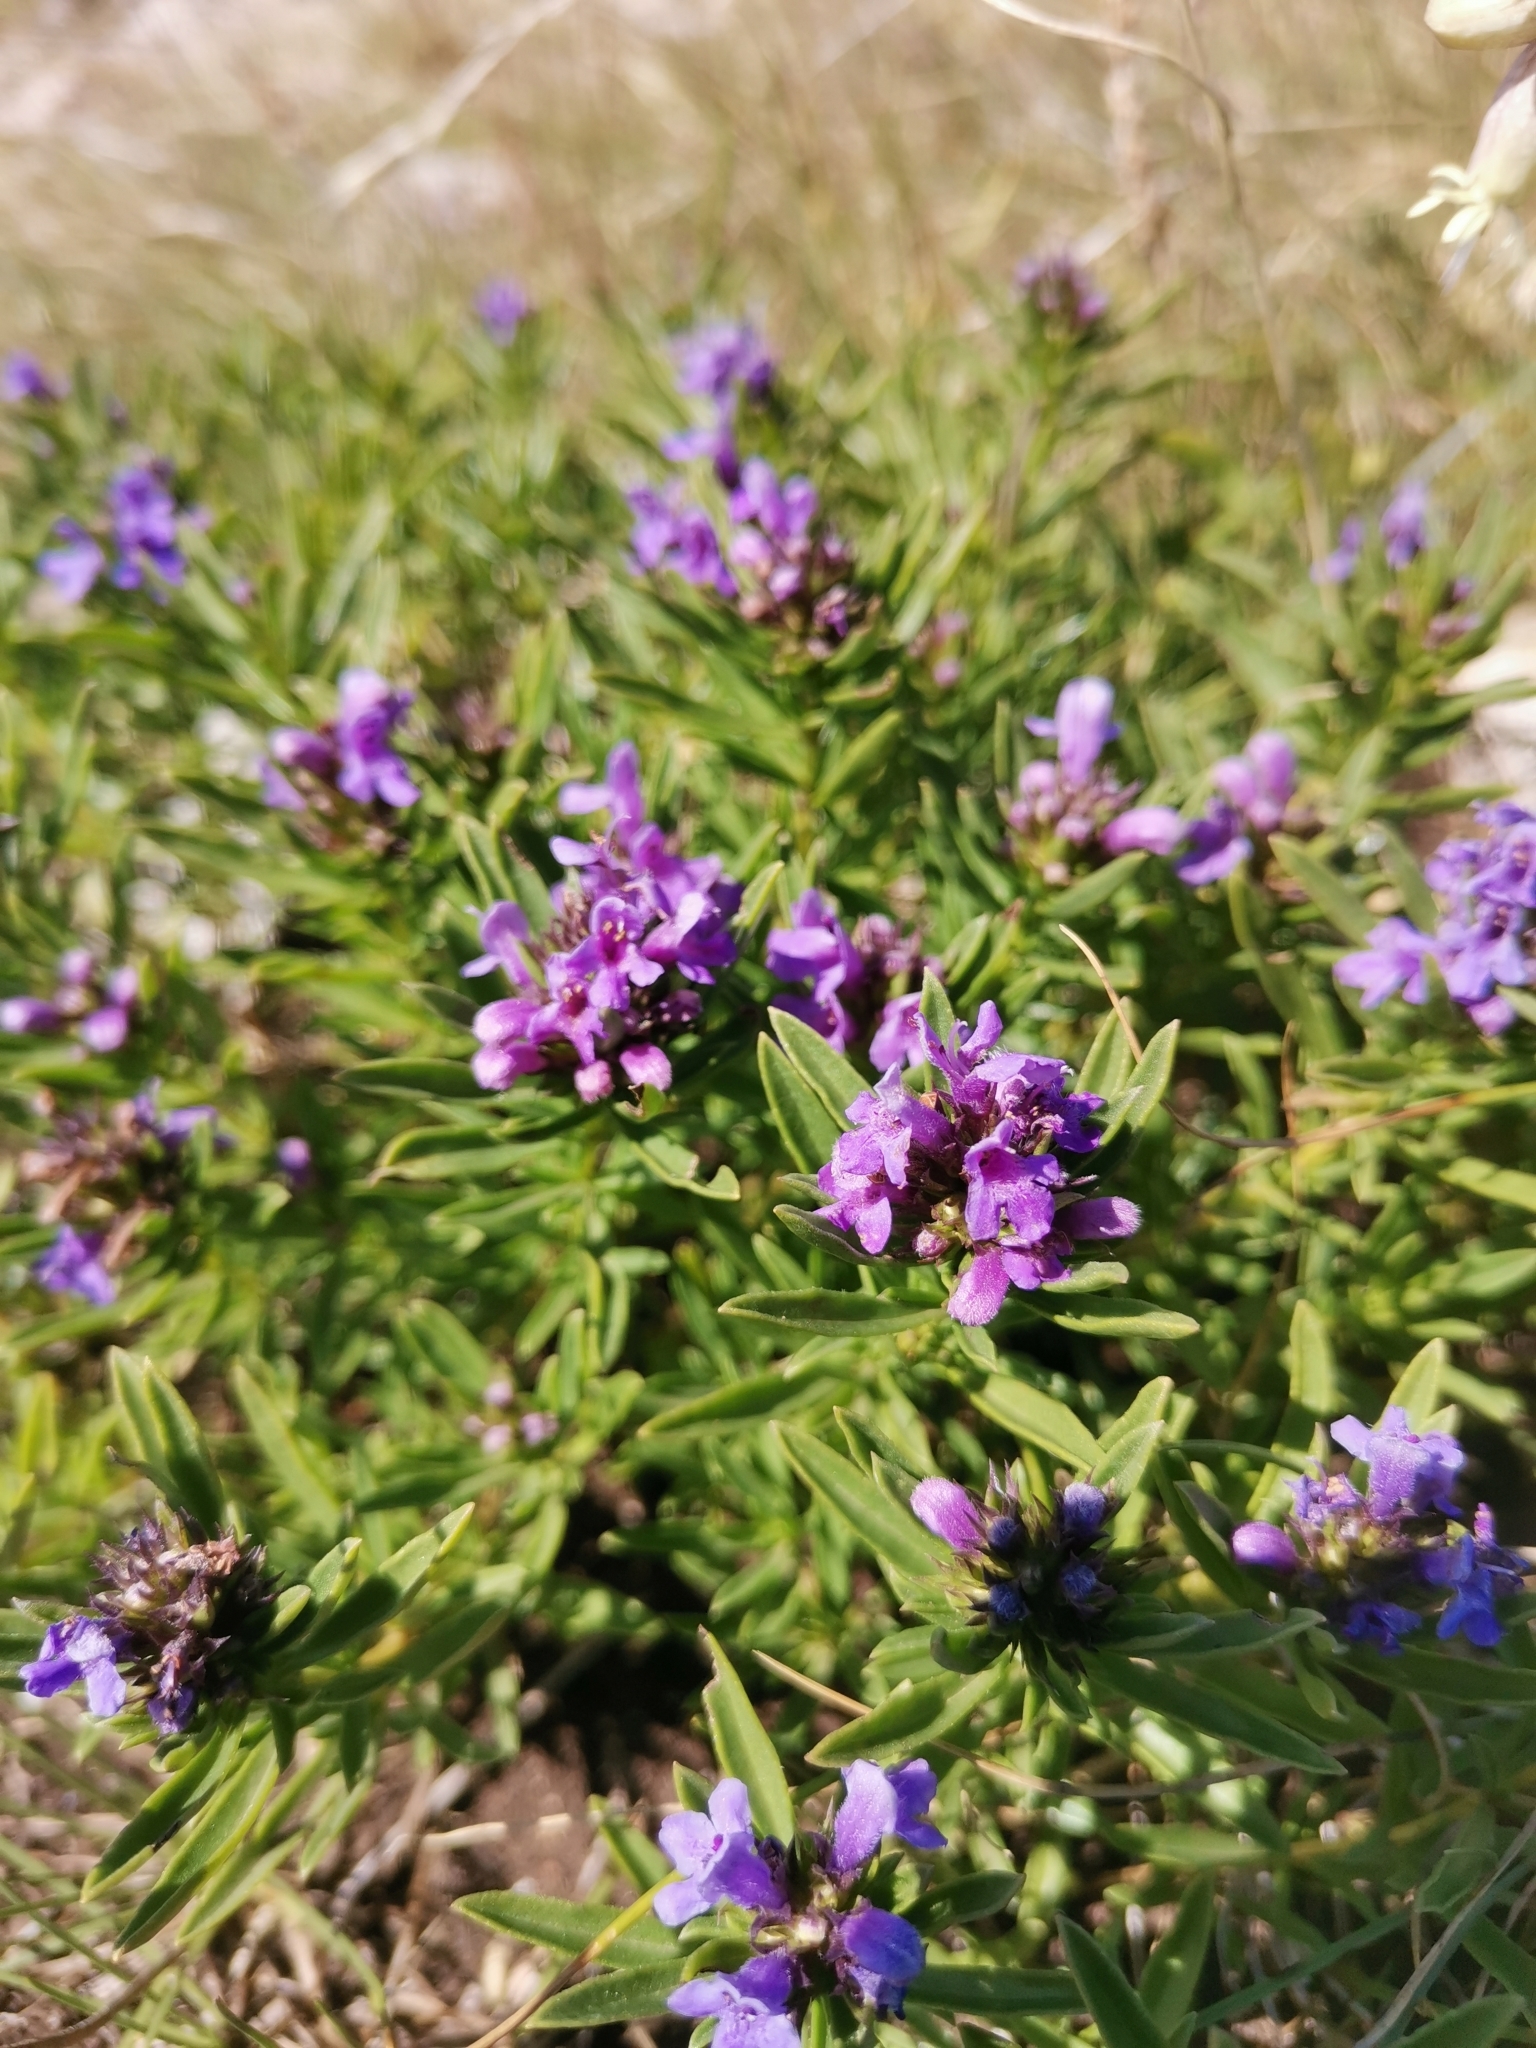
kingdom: Plantae
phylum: Tracheophyta
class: Magnoliopsida
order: Lamiales
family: Lamiaceae
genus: Satureja
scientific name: Satureja subspicata
